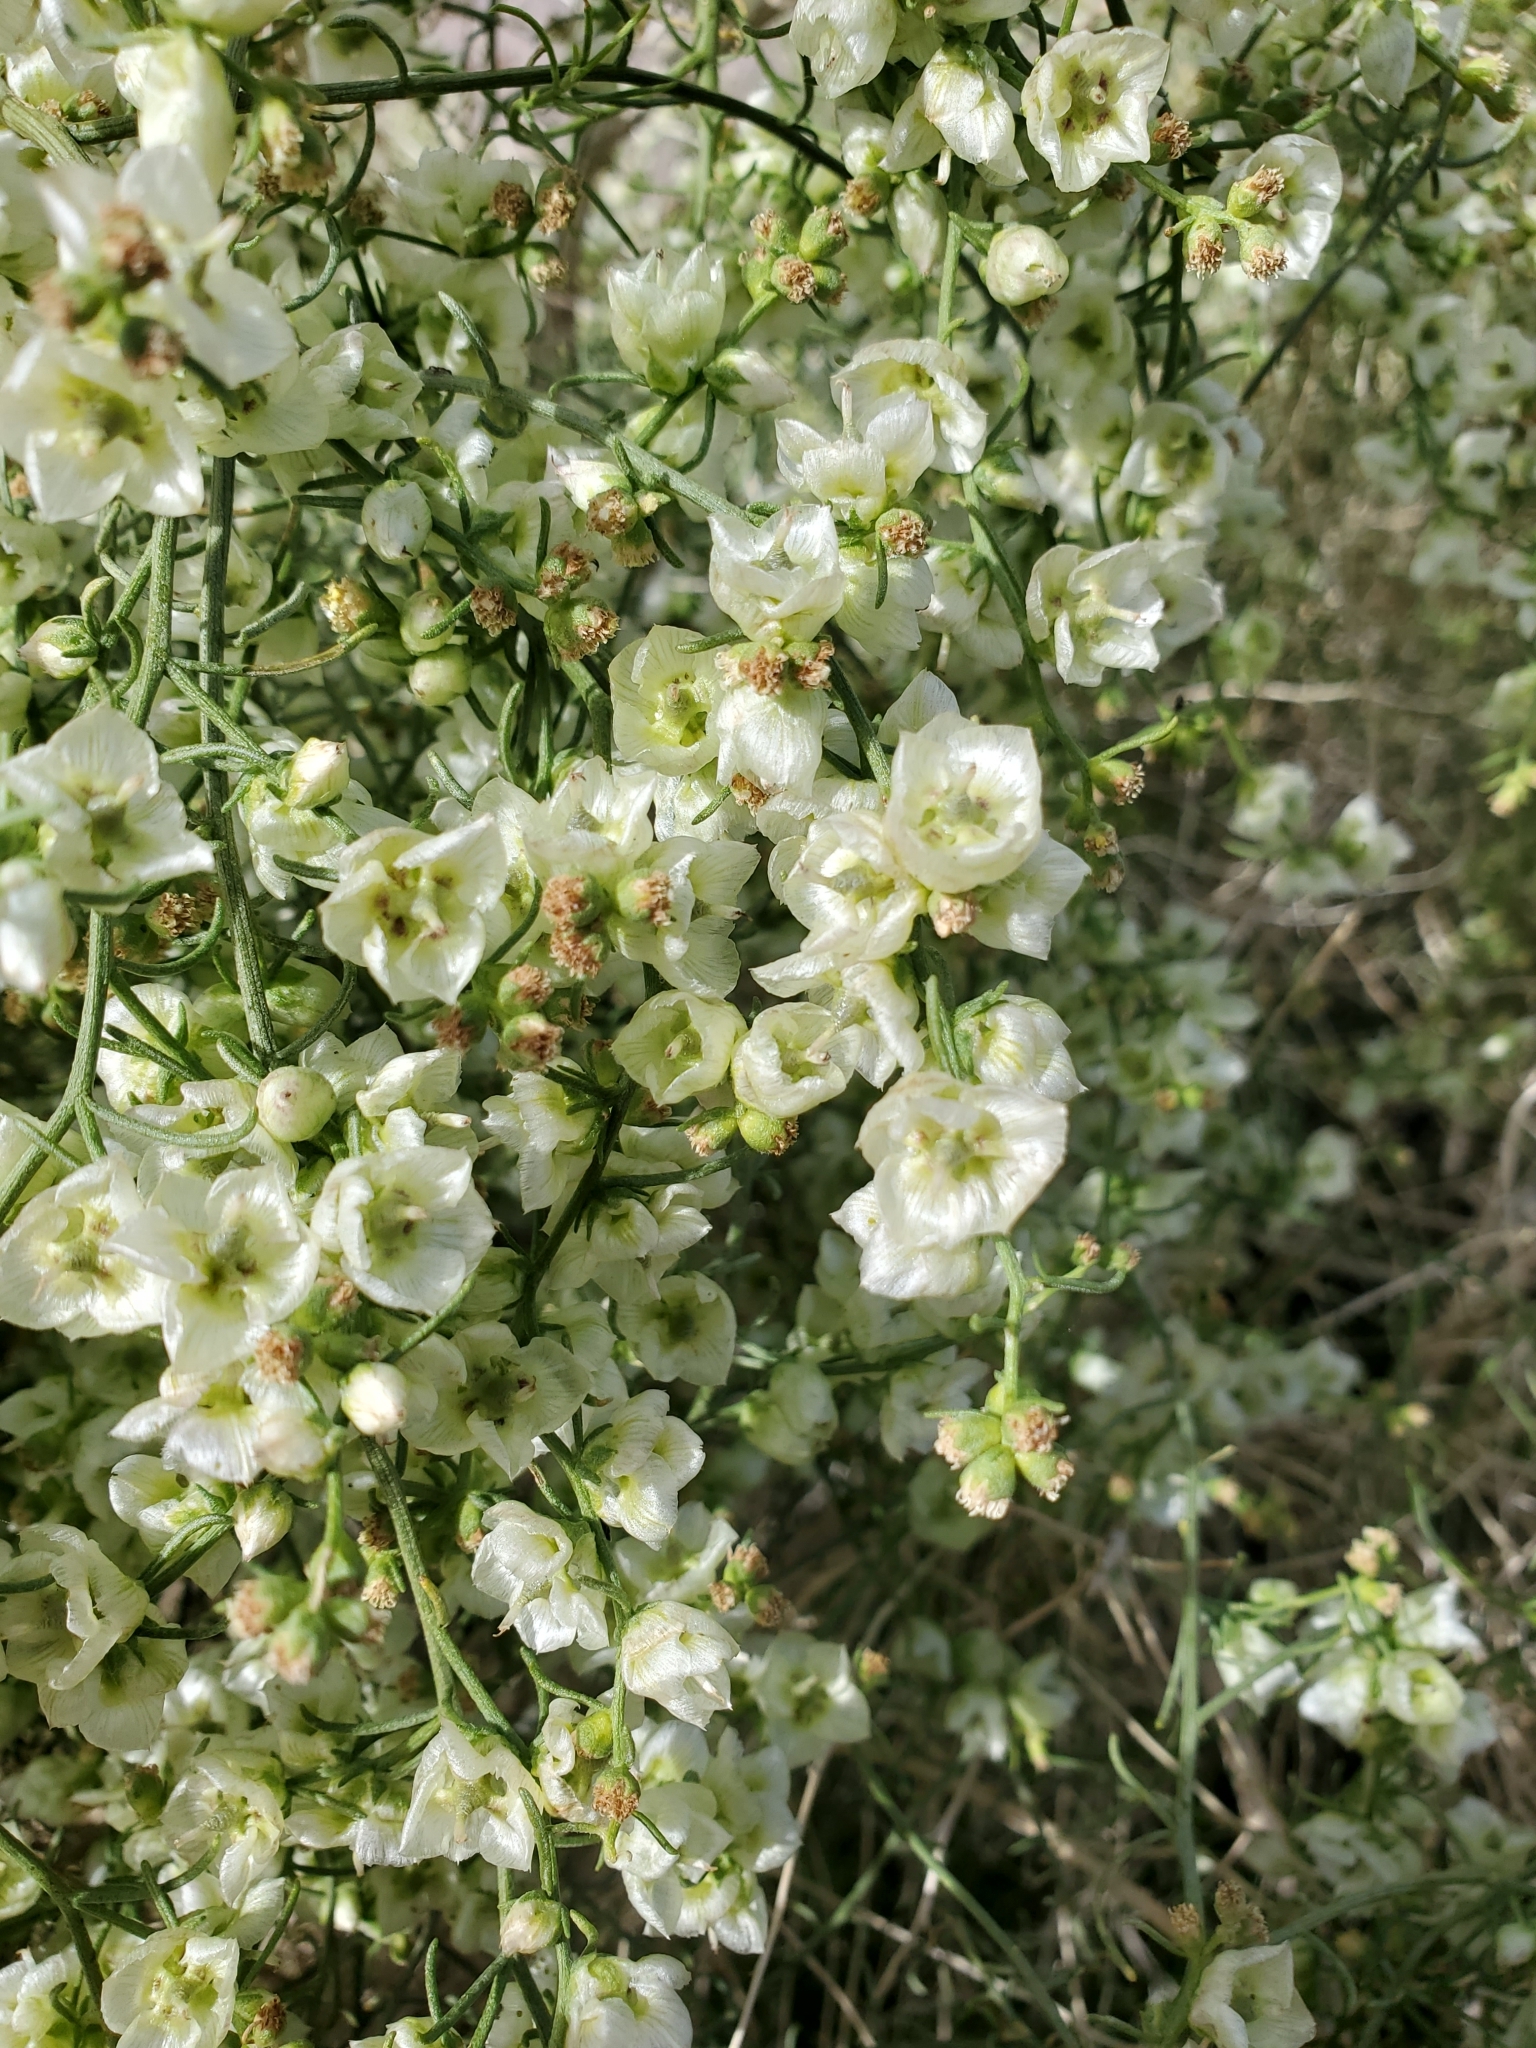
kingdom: Plantae
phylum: Tracheophyta
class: Magnoliopsida
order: Asterales
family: Asteraceae
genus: Ambrosia
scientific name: Ambrosia salsola
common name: Burrobrush
